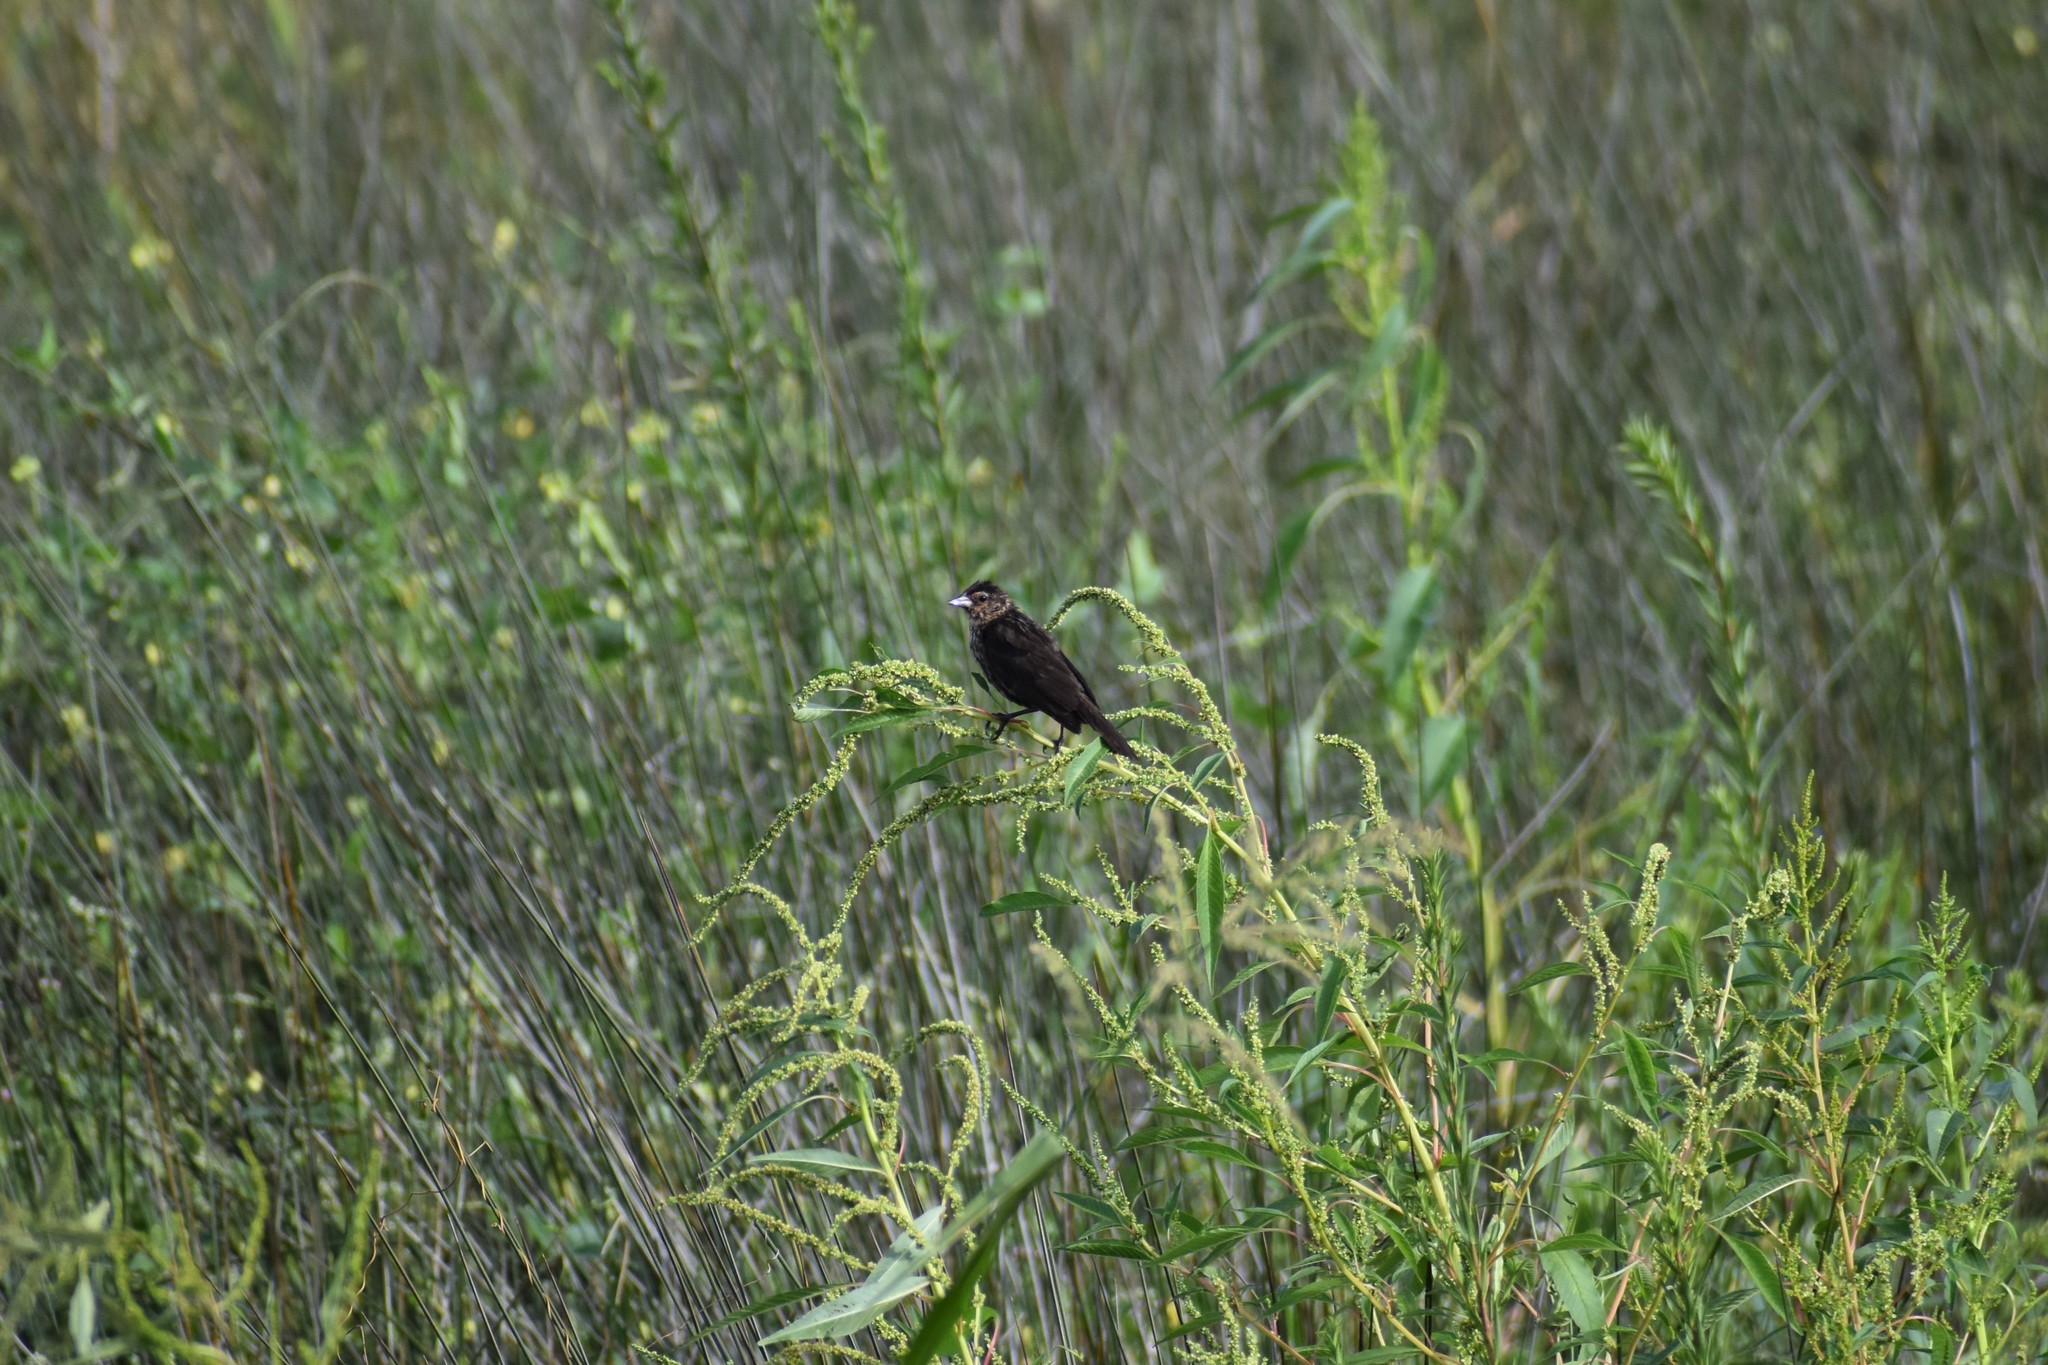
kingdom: Animalia
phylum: Chordata
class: Aves
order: Passeriformes
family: Icteridae
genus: Agelaius
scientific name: Agelaius phoeniceus
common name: Red-winged blackbird
